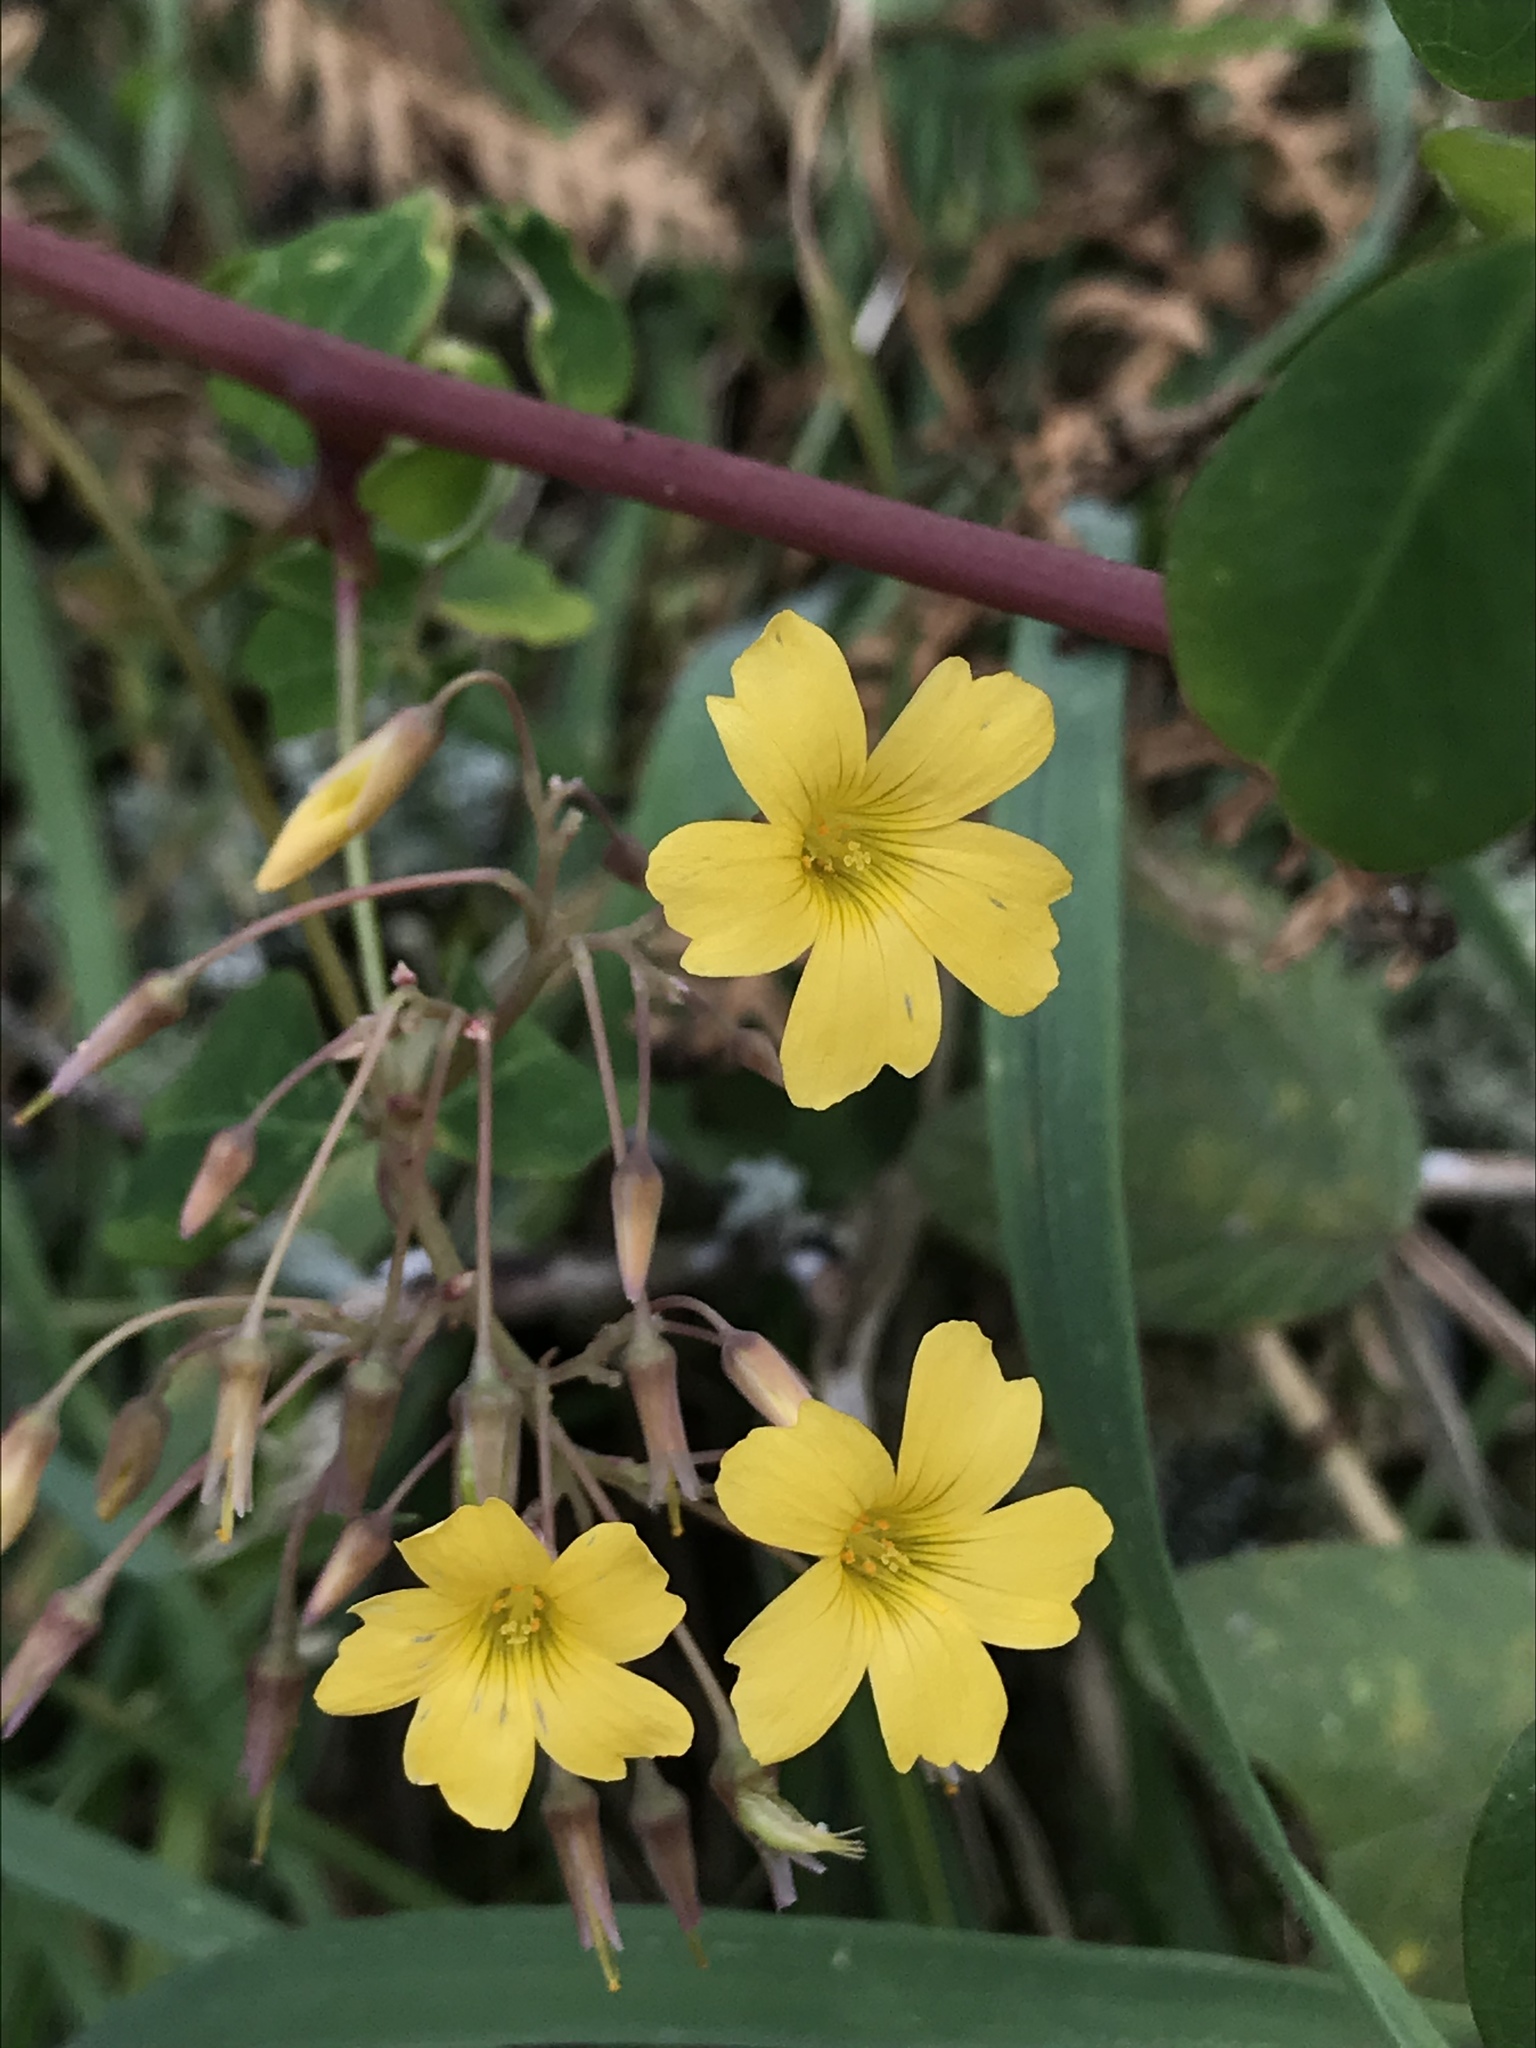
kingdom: Plantae
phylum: Tracheophyta
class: Magnoliopsida
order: Oxalidales
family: Oxalidaceae
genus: Oxalis
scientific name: Oxalis corniculata
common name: Procumbent yellow-sorrel
